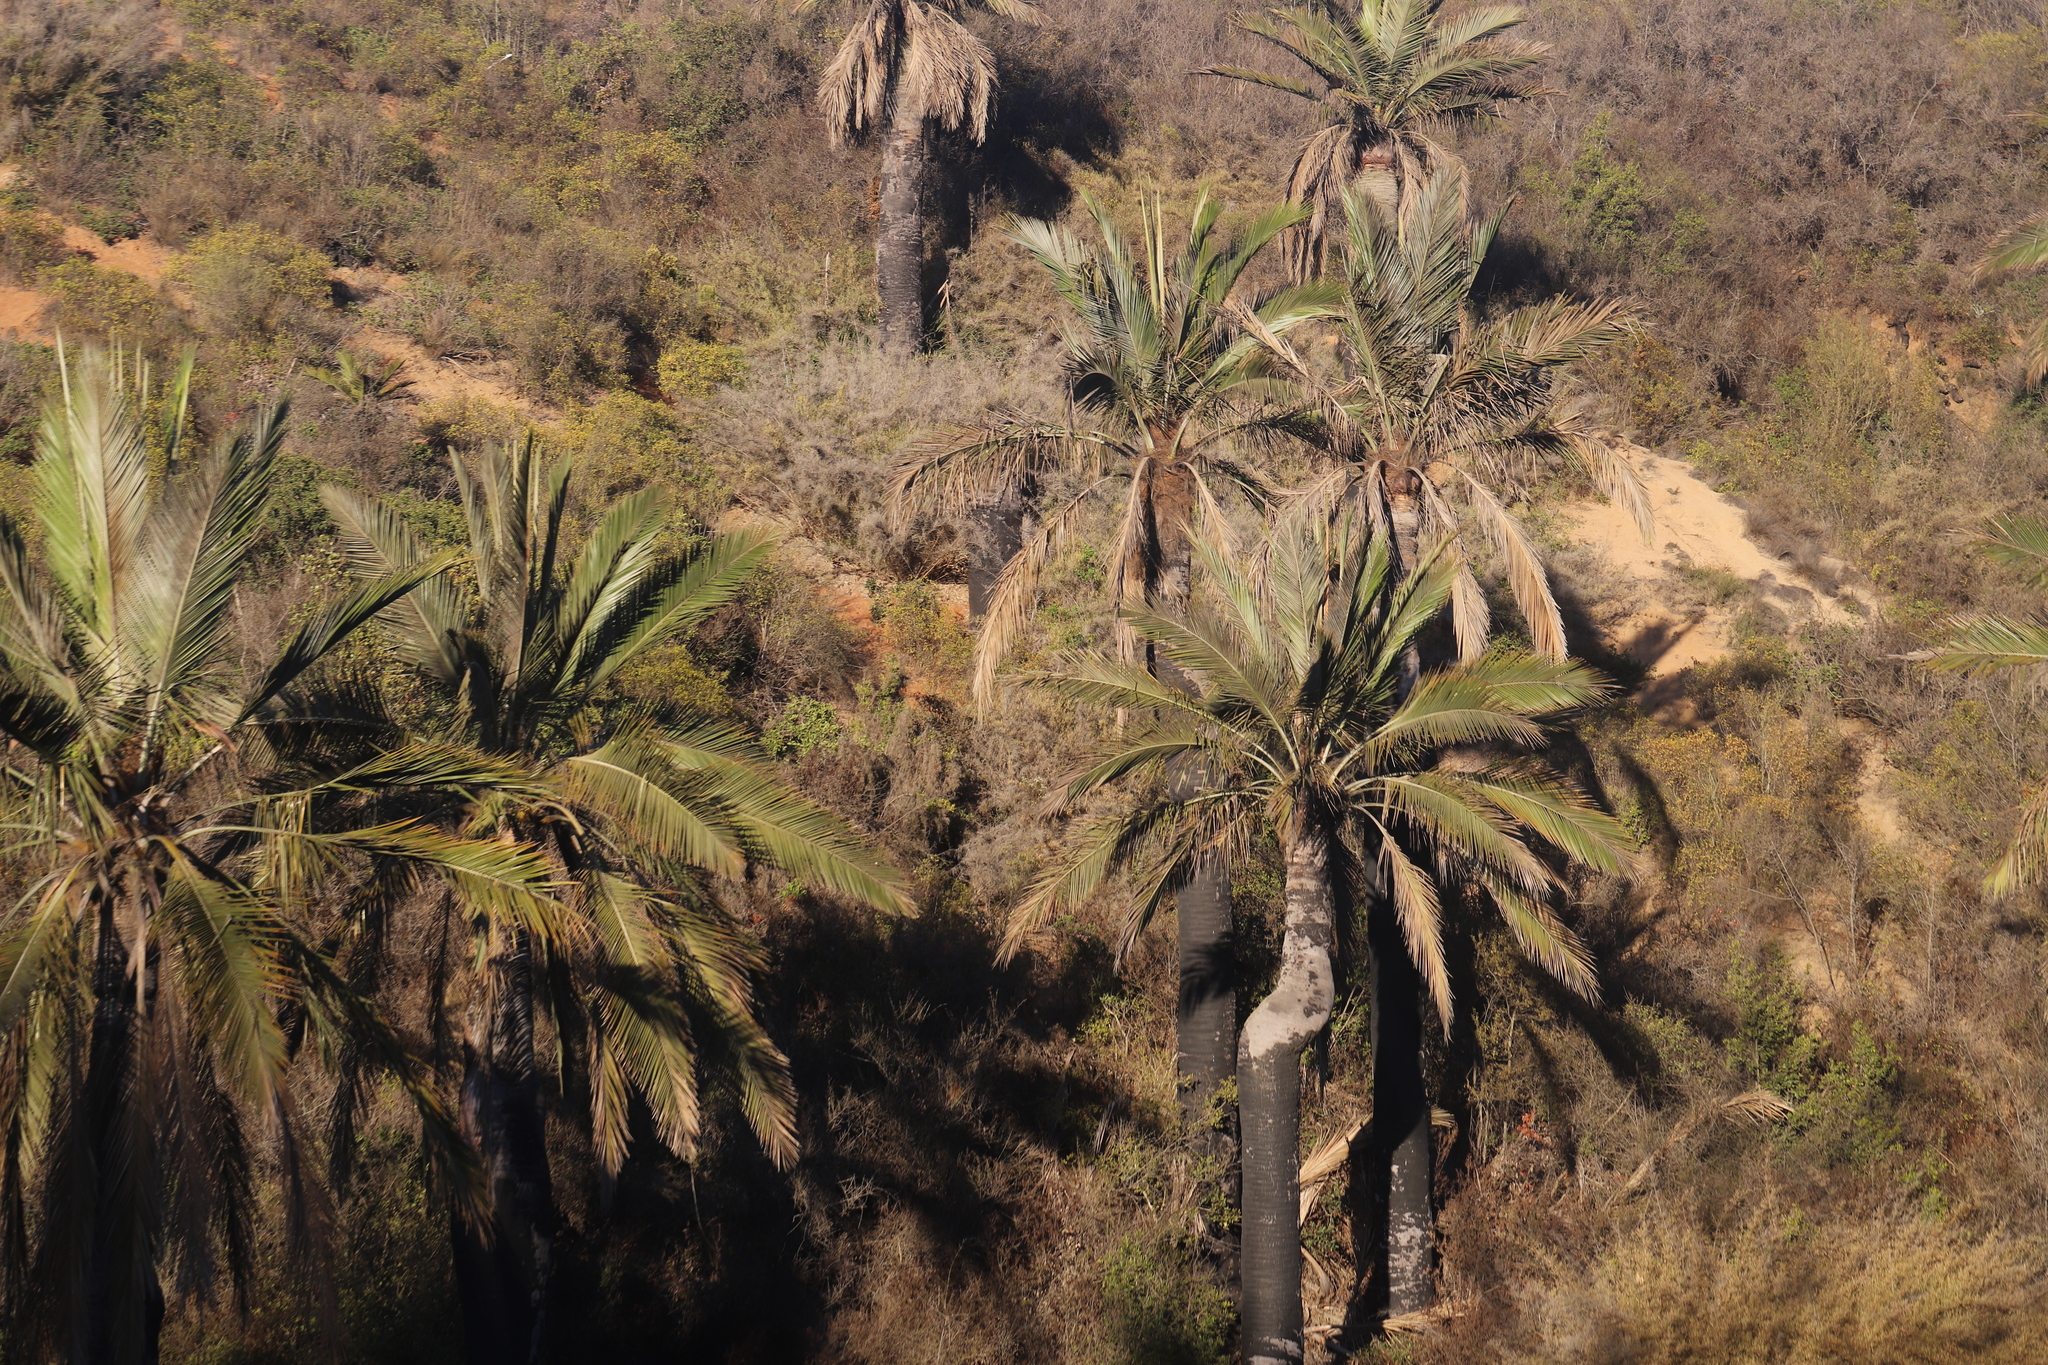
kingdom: Plantae
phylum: Tracheophyta
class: Liliopsida
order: Arecales
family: Arecaceae
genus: Jubaea
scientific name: Jubaea chilensis
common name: Coquito palm
